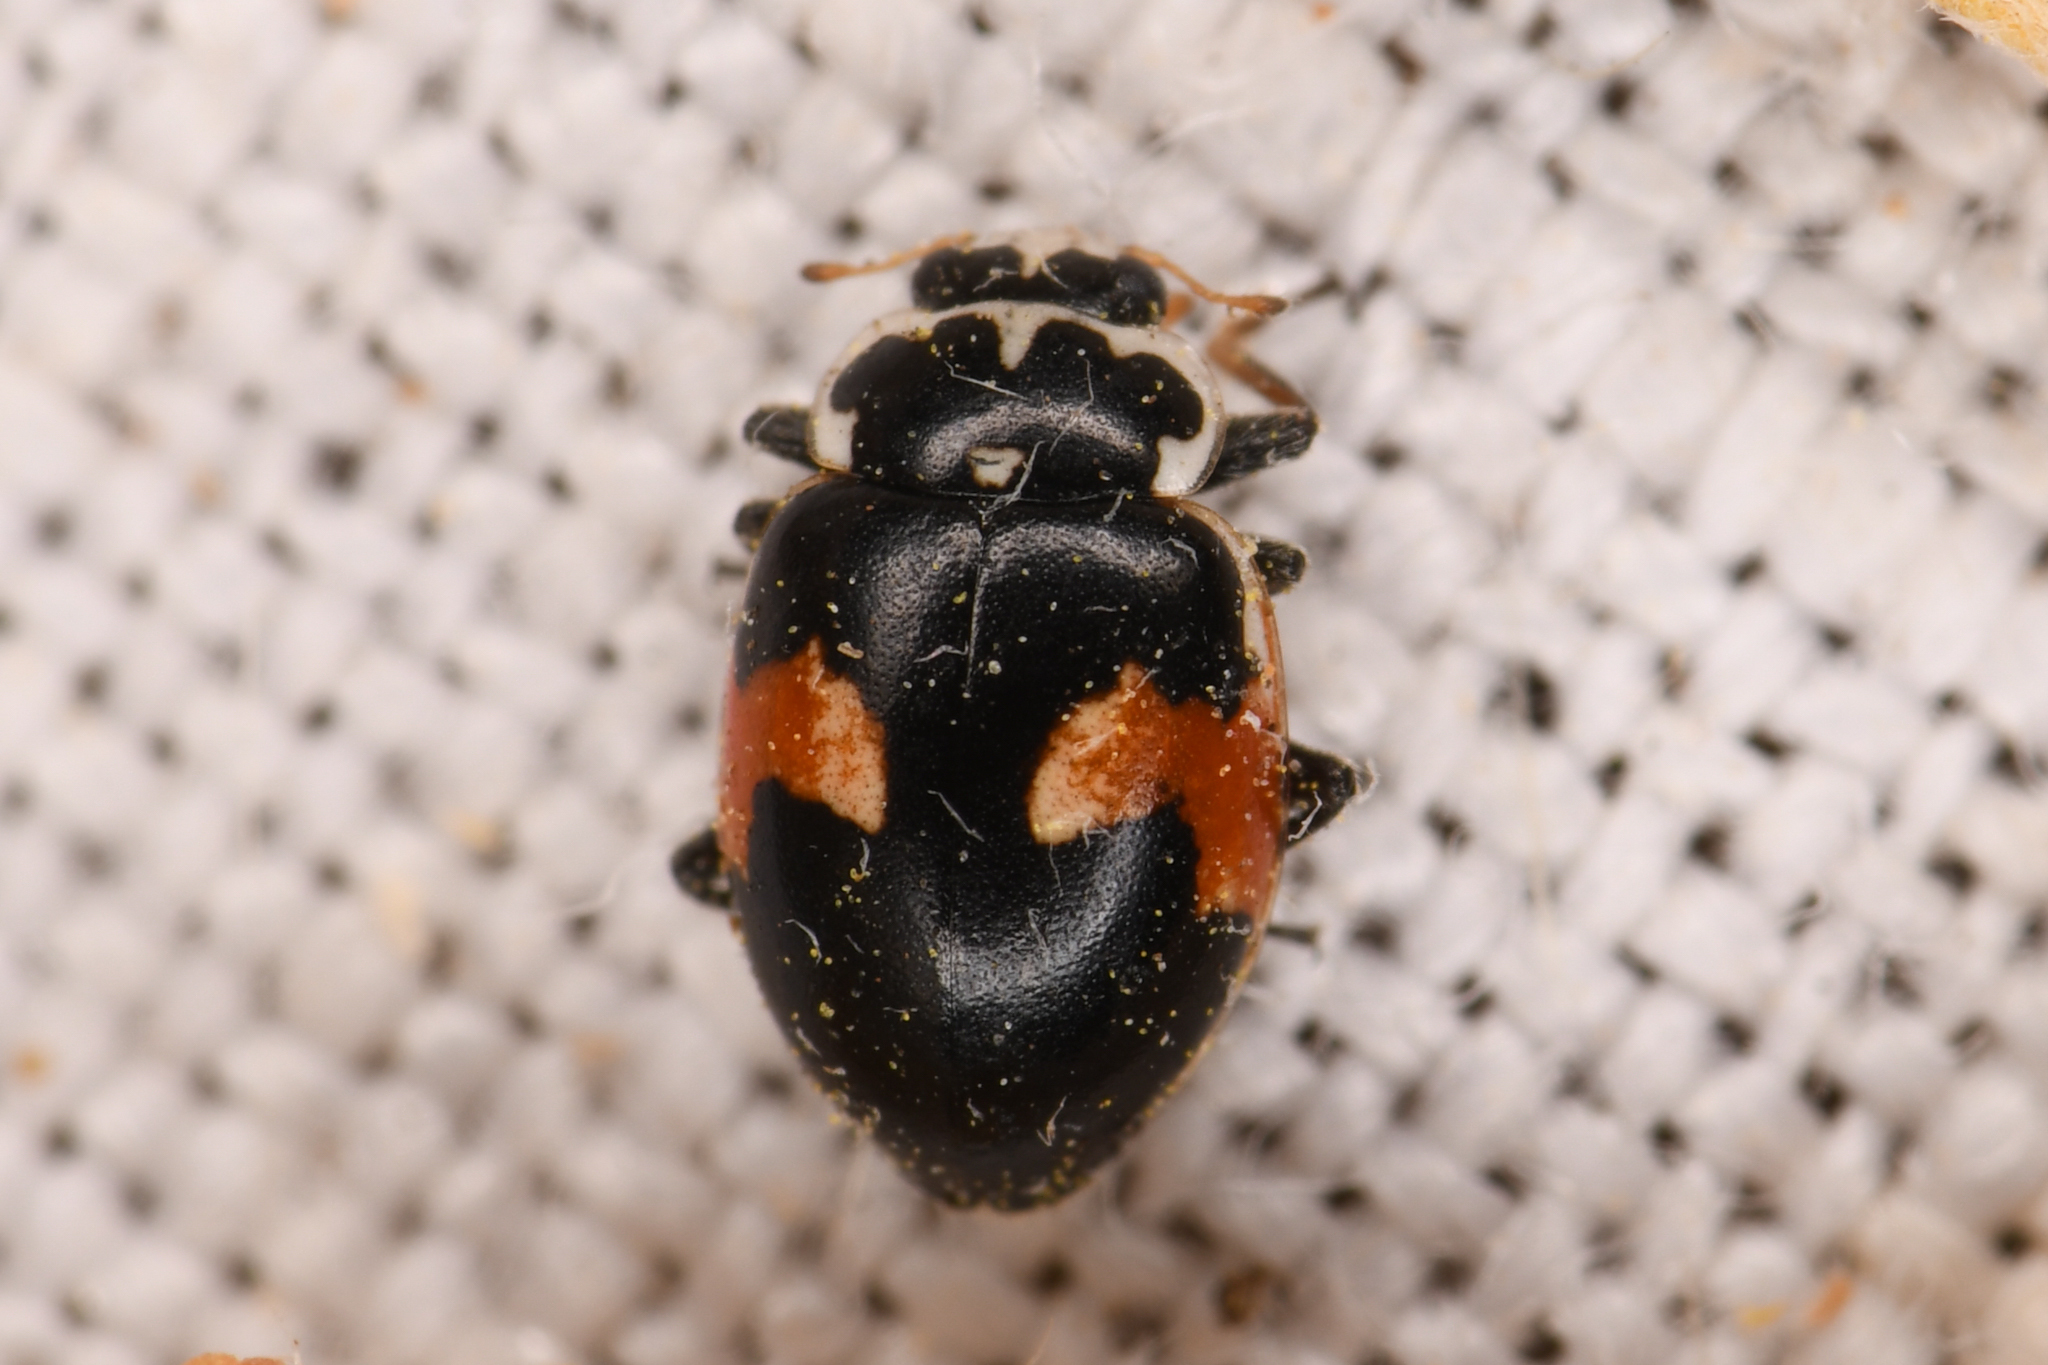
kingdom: Animalia
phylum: Arthropoda
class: Insecta
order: Coleoptera
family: Coccinellidae
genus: Hippodamia
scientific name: Hippodamia apicalis
